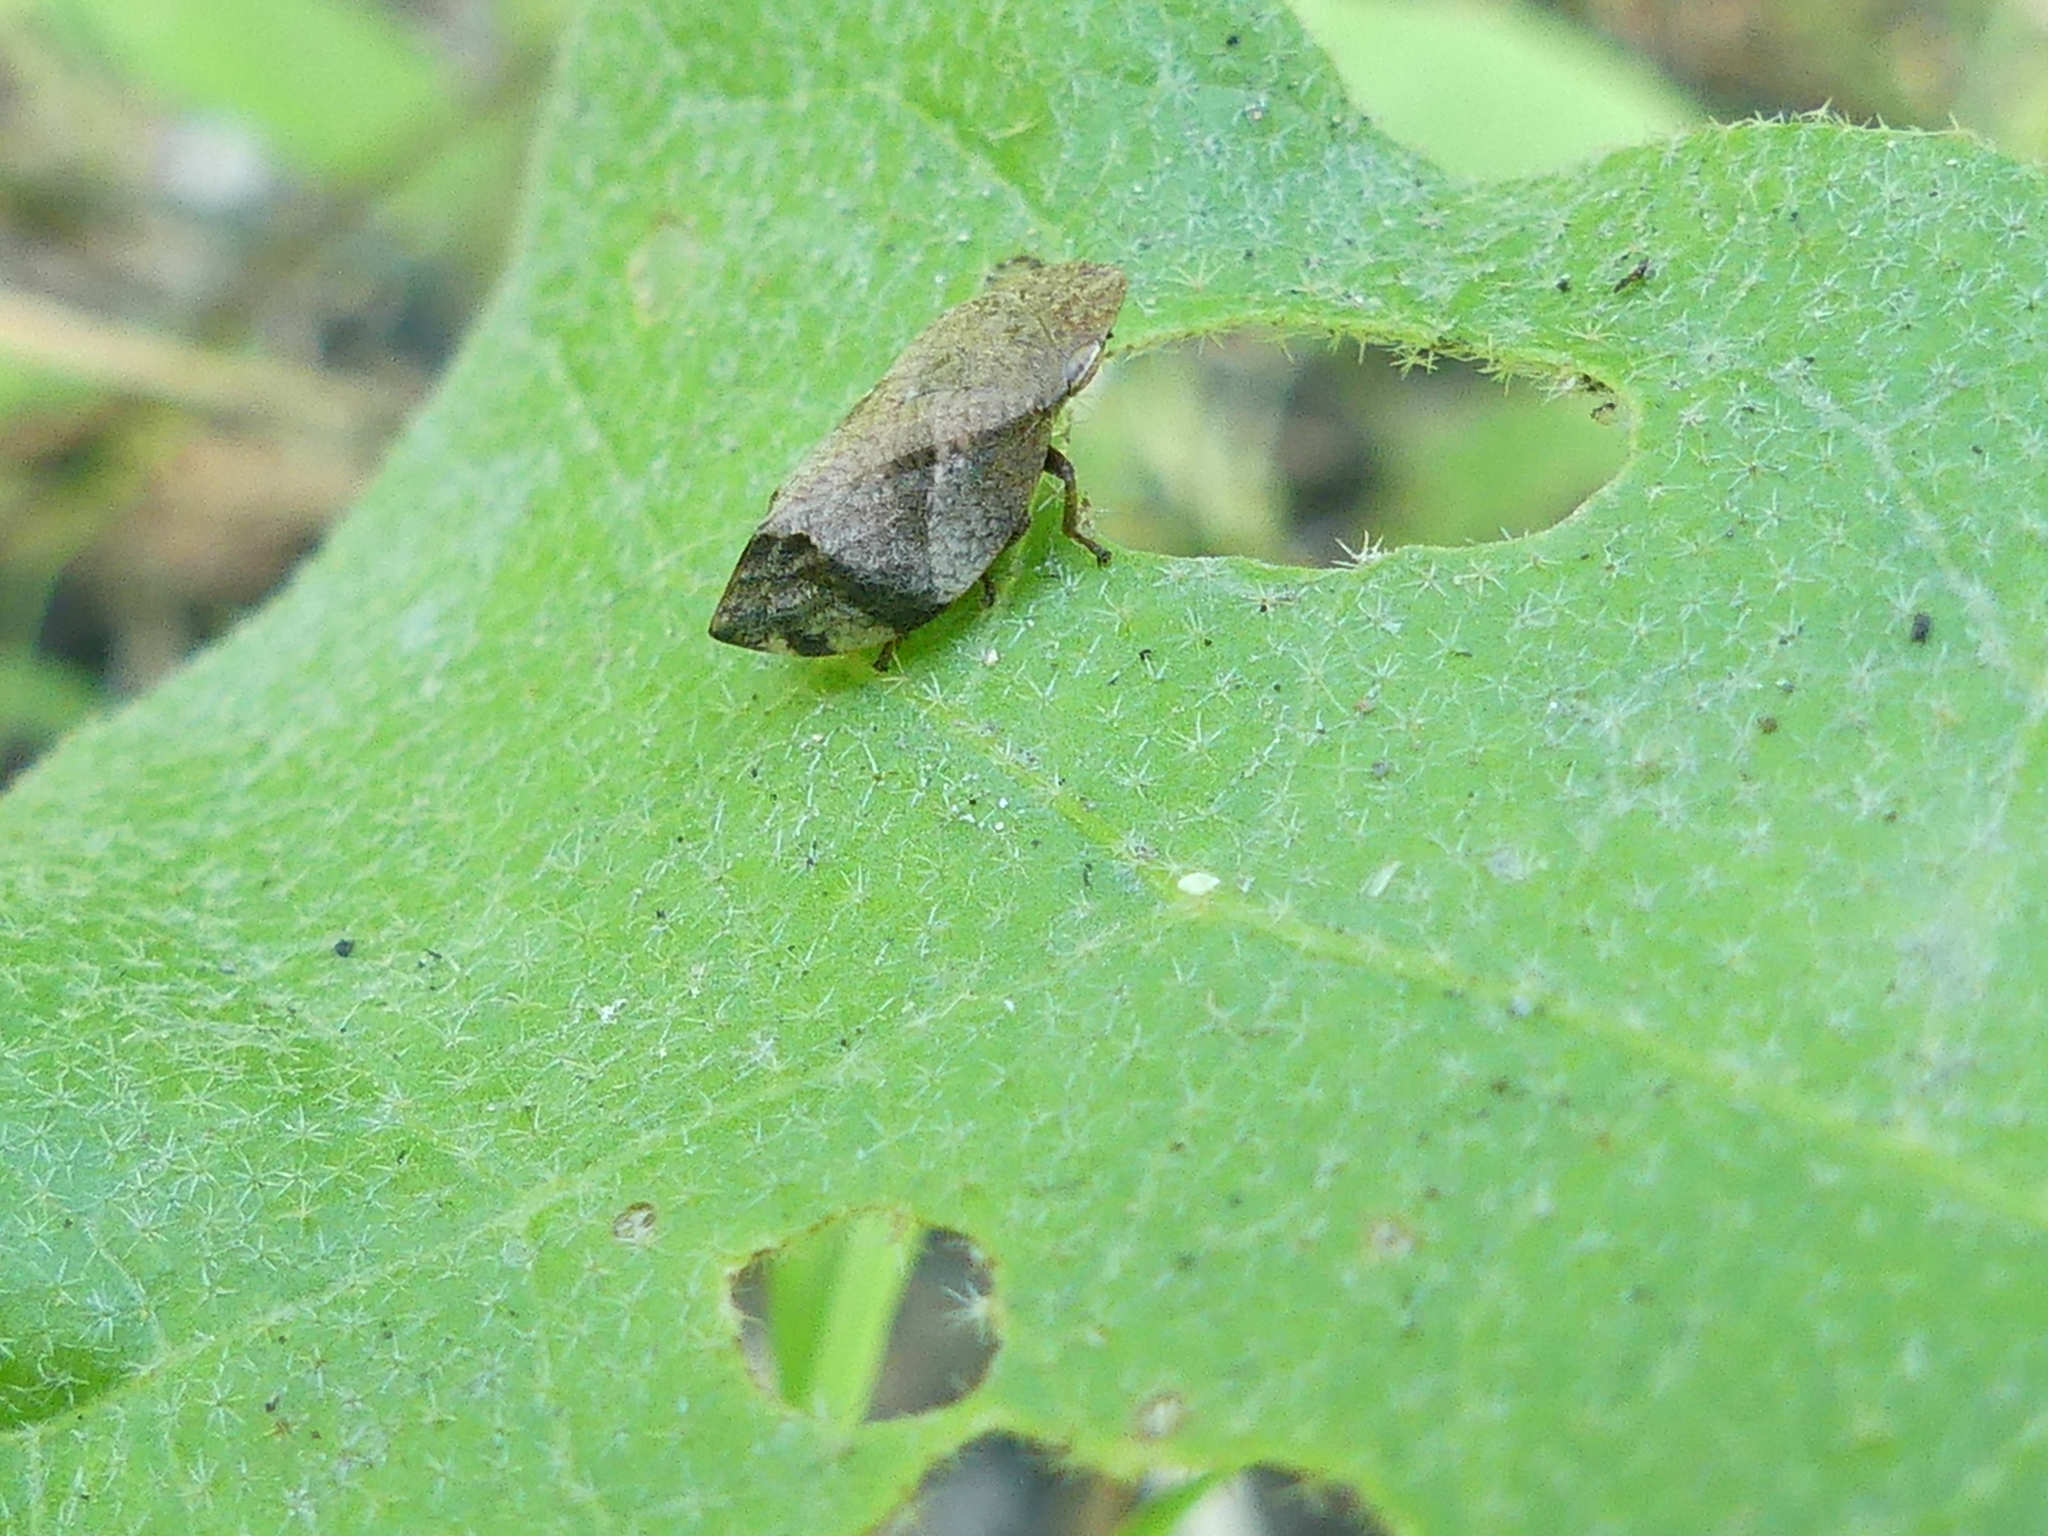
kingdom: Animalia
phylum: Arthropoda
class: Insecta
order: Hemiptera
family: Aphrophoridae
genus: Lepyronia
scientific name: Lepyronia quadrangularis
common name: Diamond-backed spittlebug
